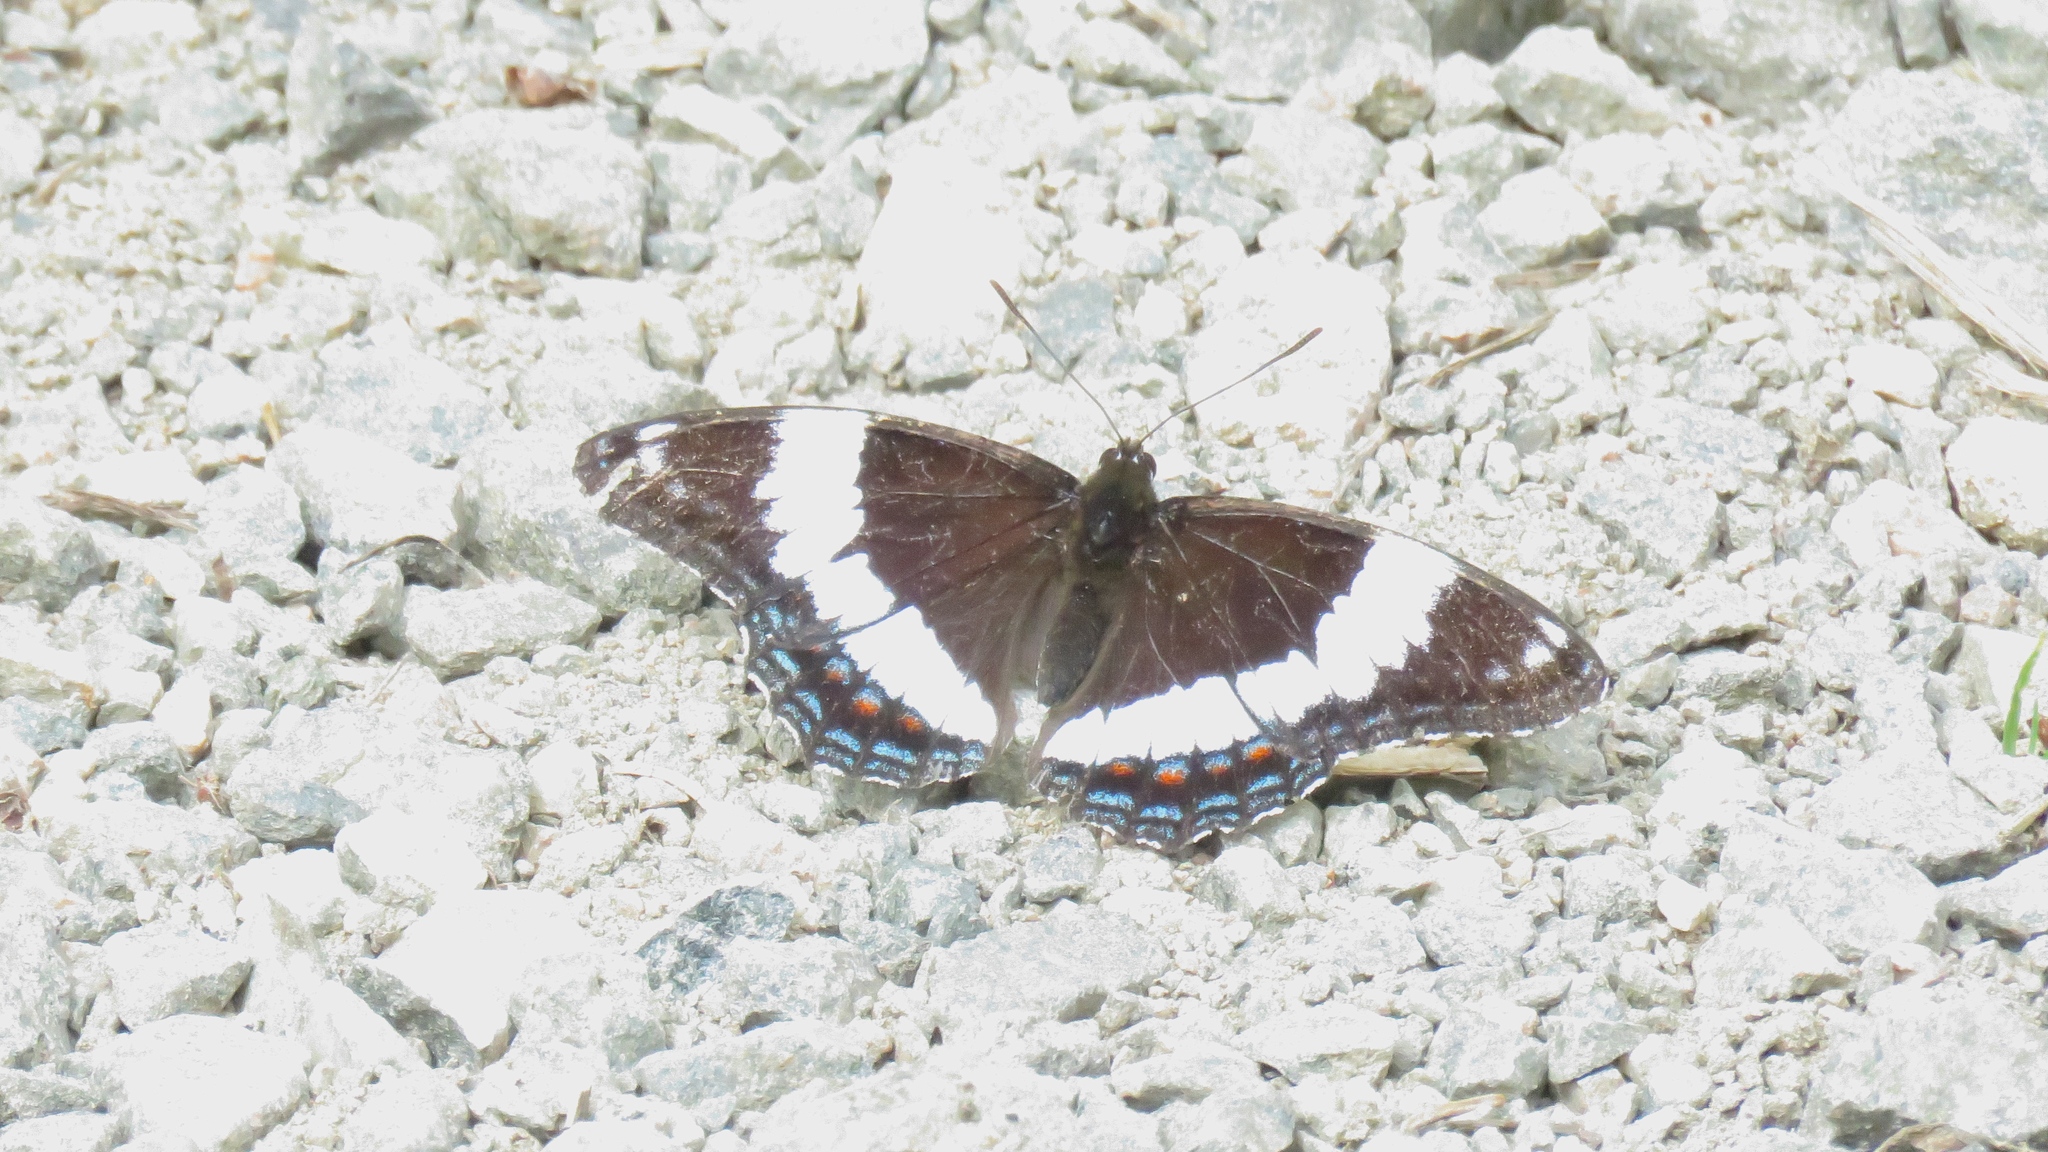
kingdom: Animalia
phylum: Arthropoda
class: Insecta
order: Lepidoptera
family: Nymphalidae
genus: Limenitis
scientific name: Limenitis arthemis
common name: Red-spotted admiral
